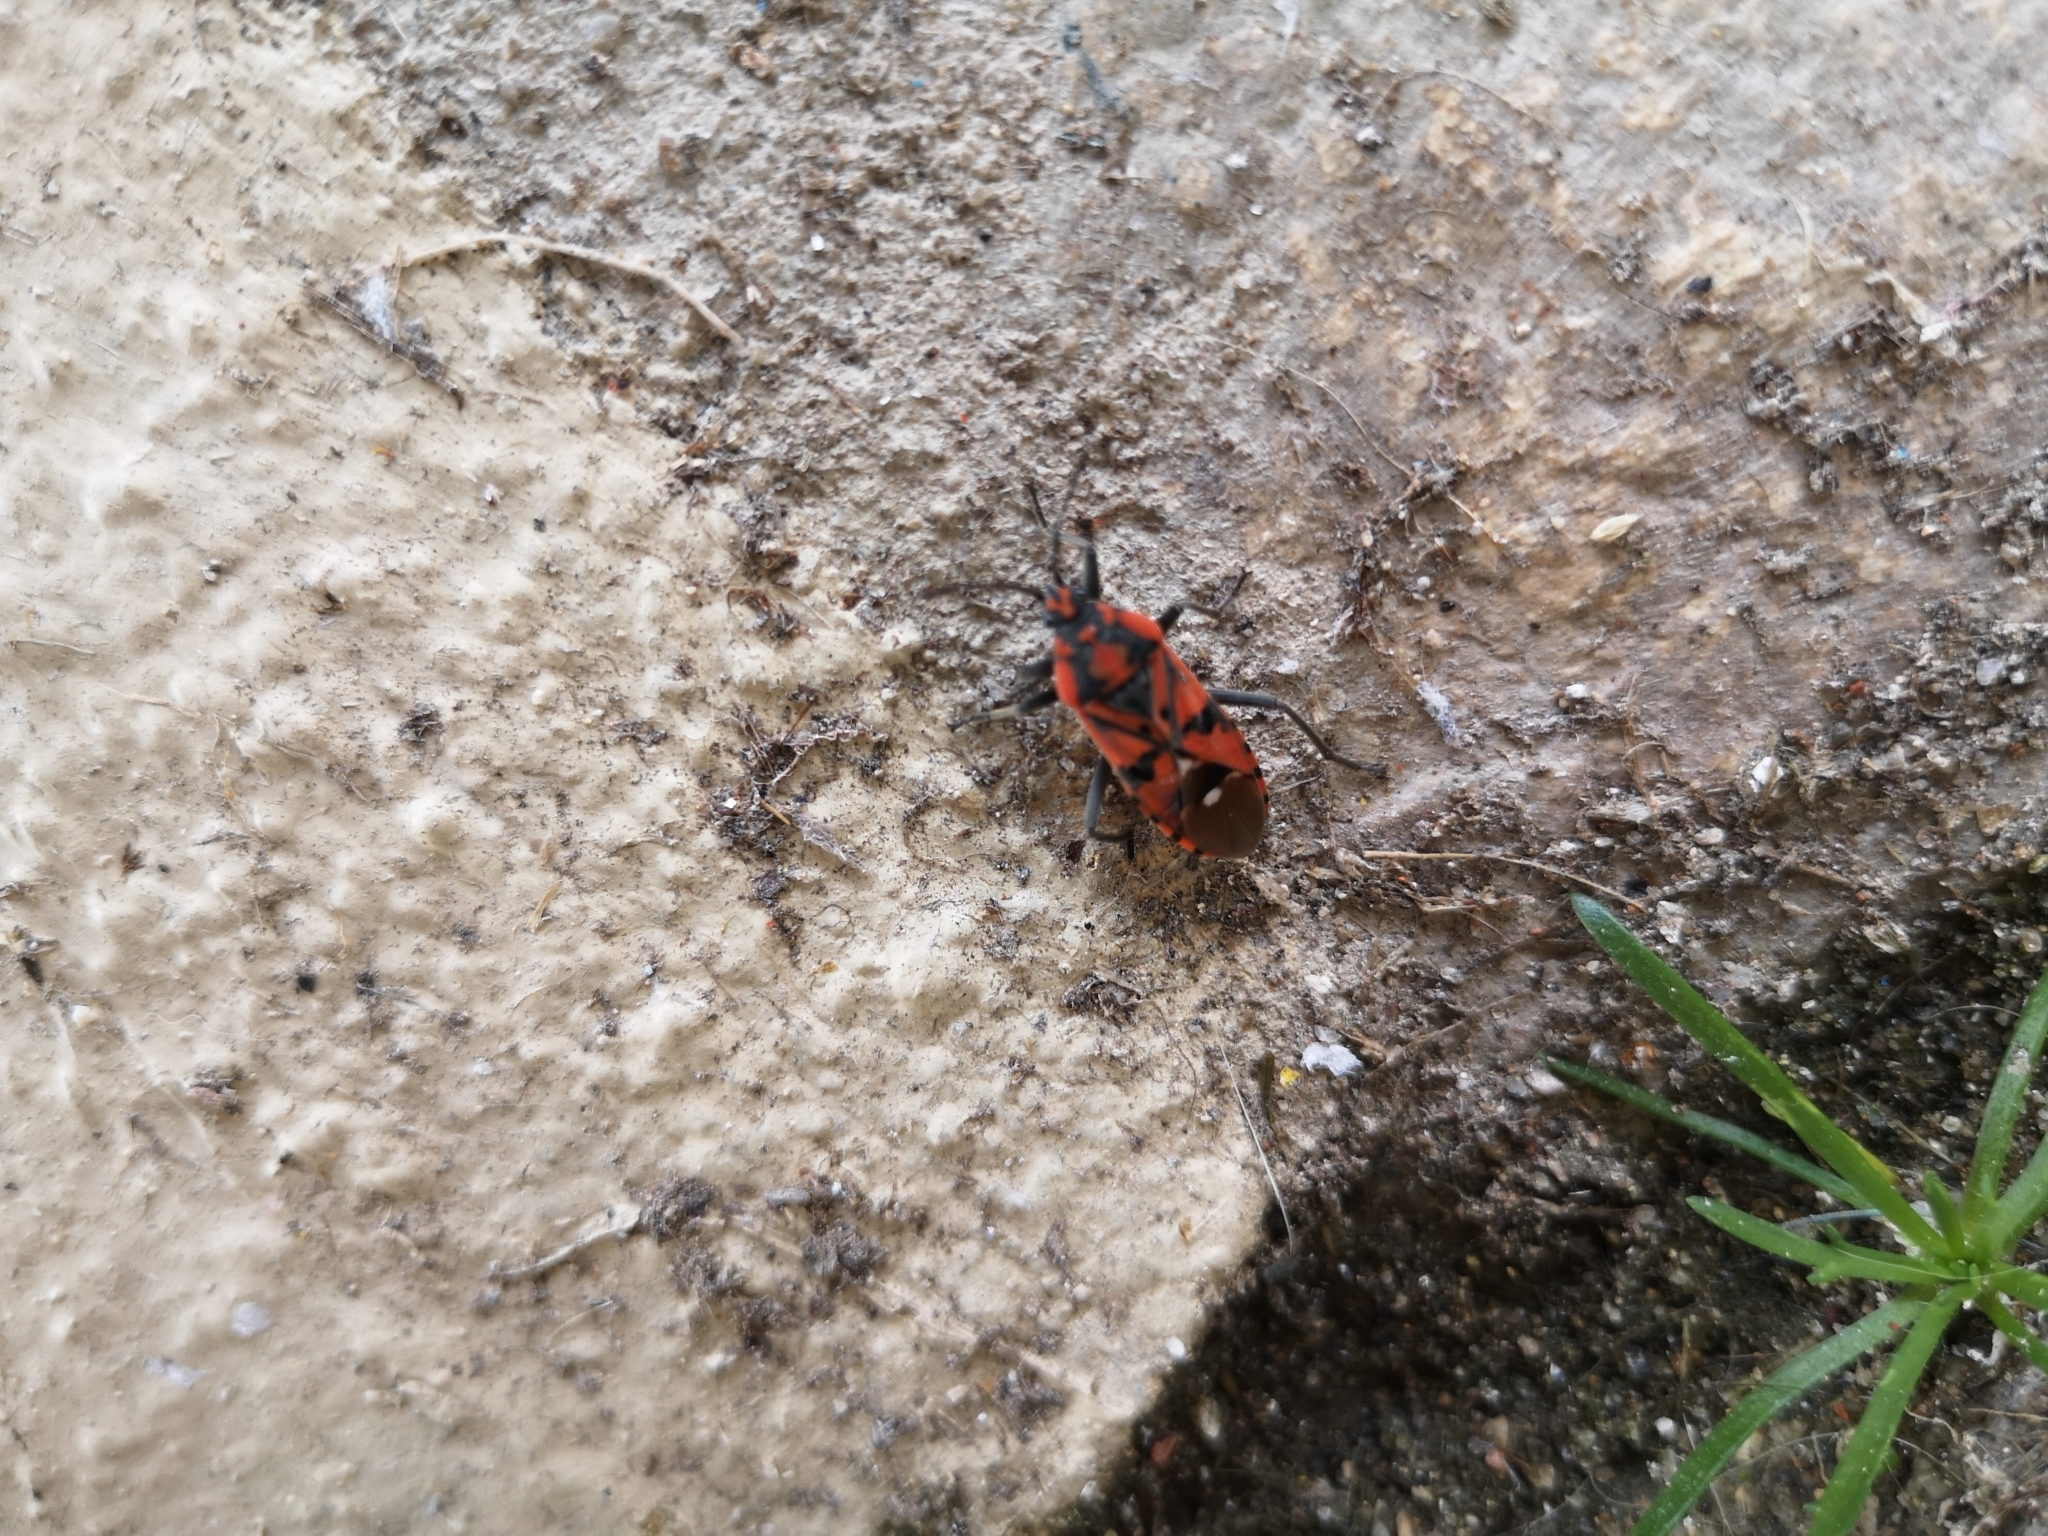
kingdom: Animalia
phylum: Arthropoda
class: Insecta
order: Hemiptera
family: Lygaeidae
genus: Spilostethus
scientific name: Spilostethus pandurus
